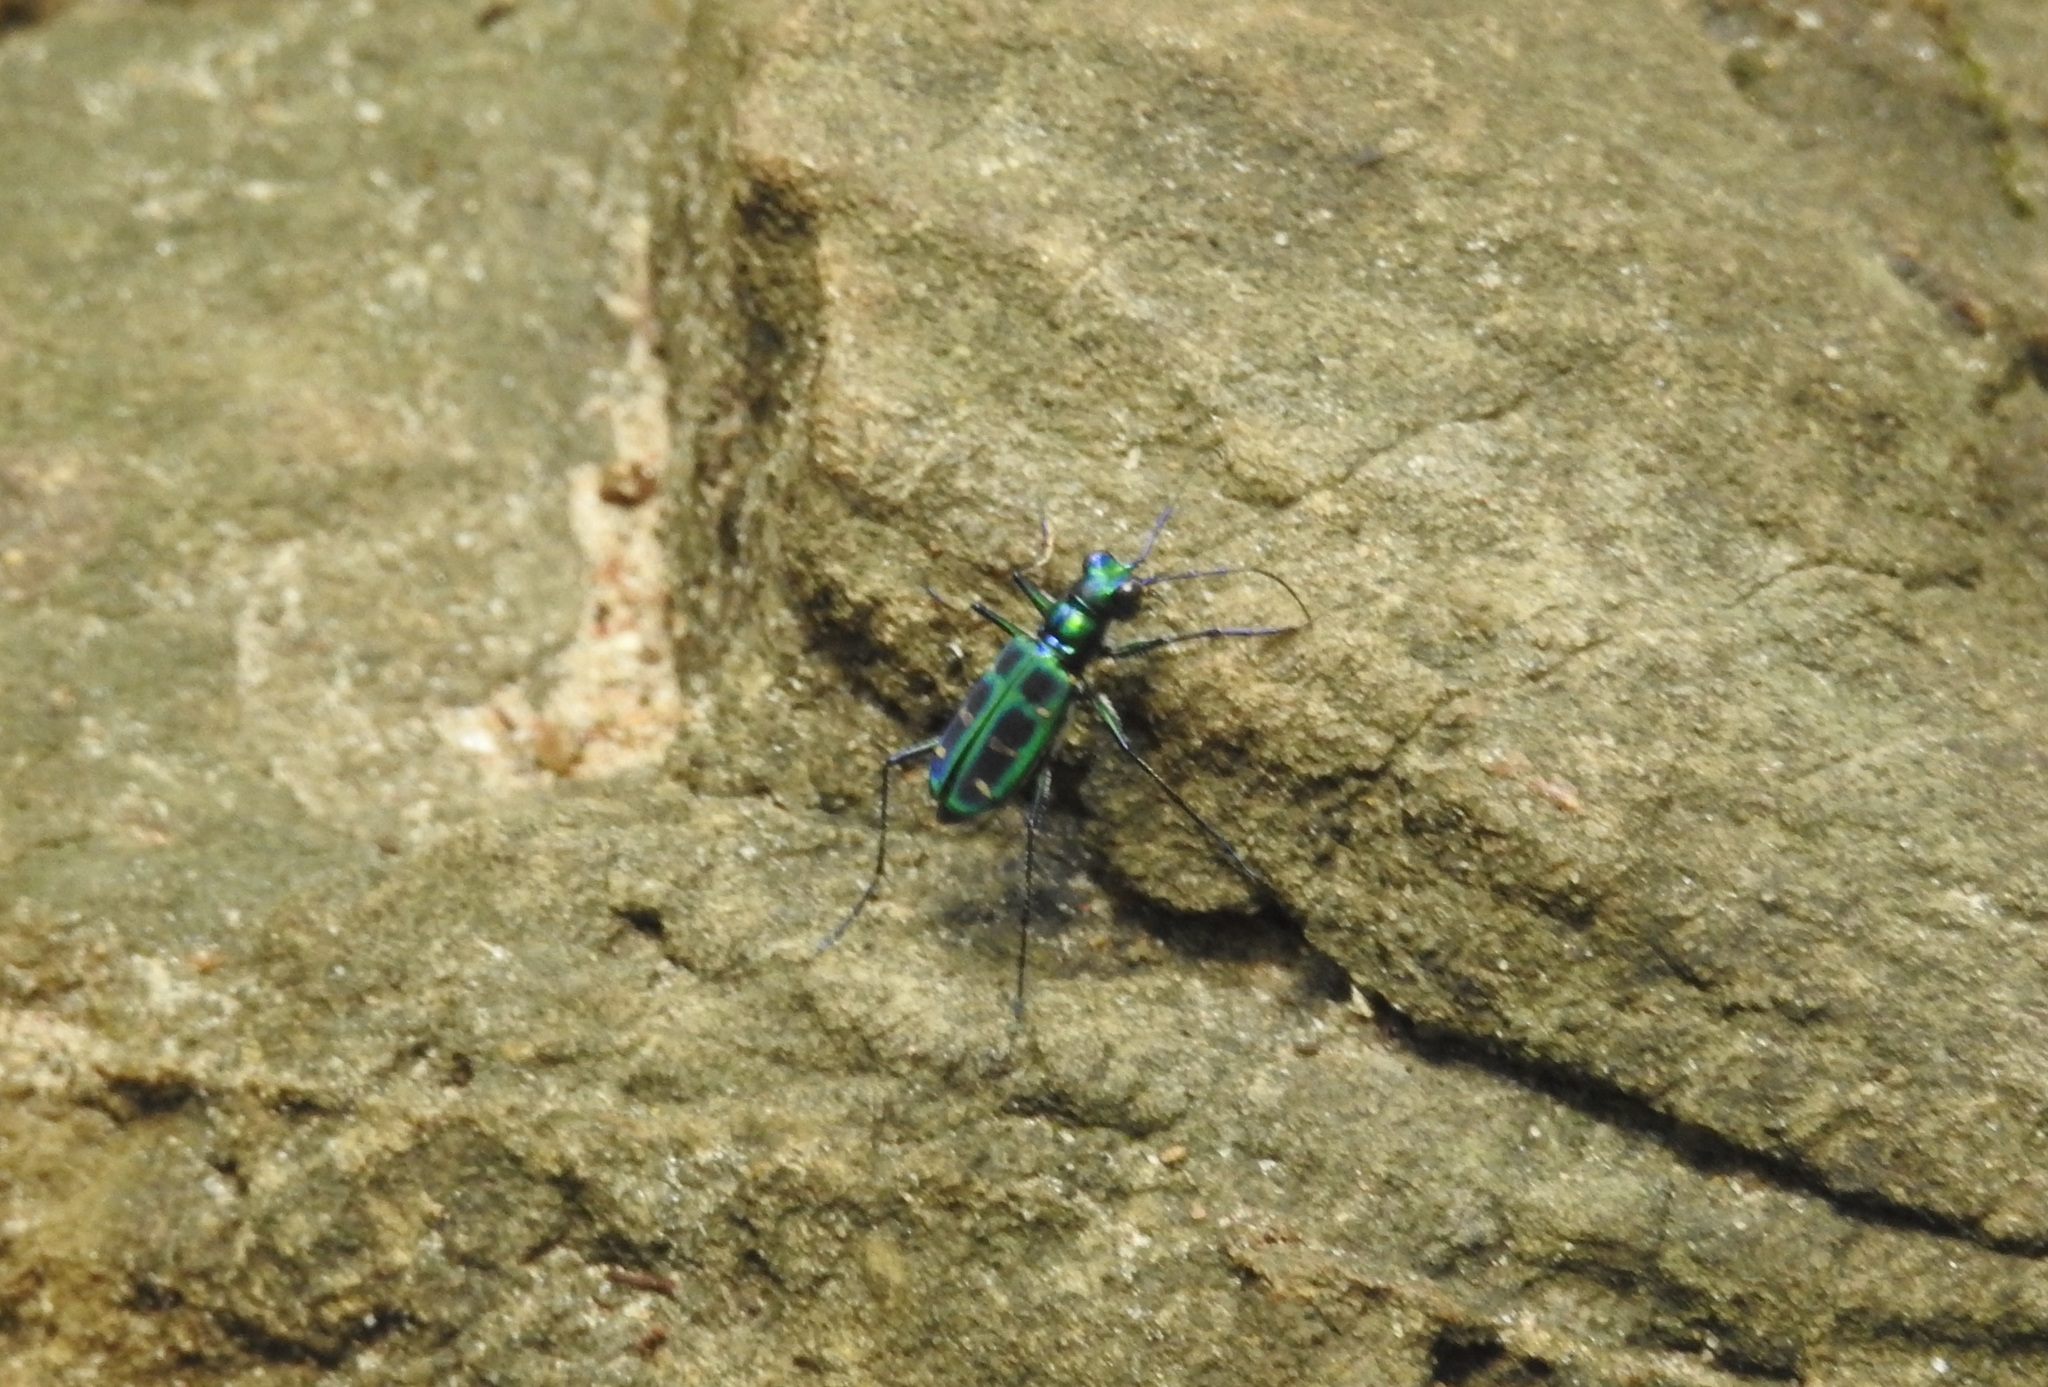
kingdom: Animalia
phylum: Arthropoda
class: Insecta
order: Coleoptera
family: Carabidae
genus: Cicindela
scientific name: Cicindela barmanica
